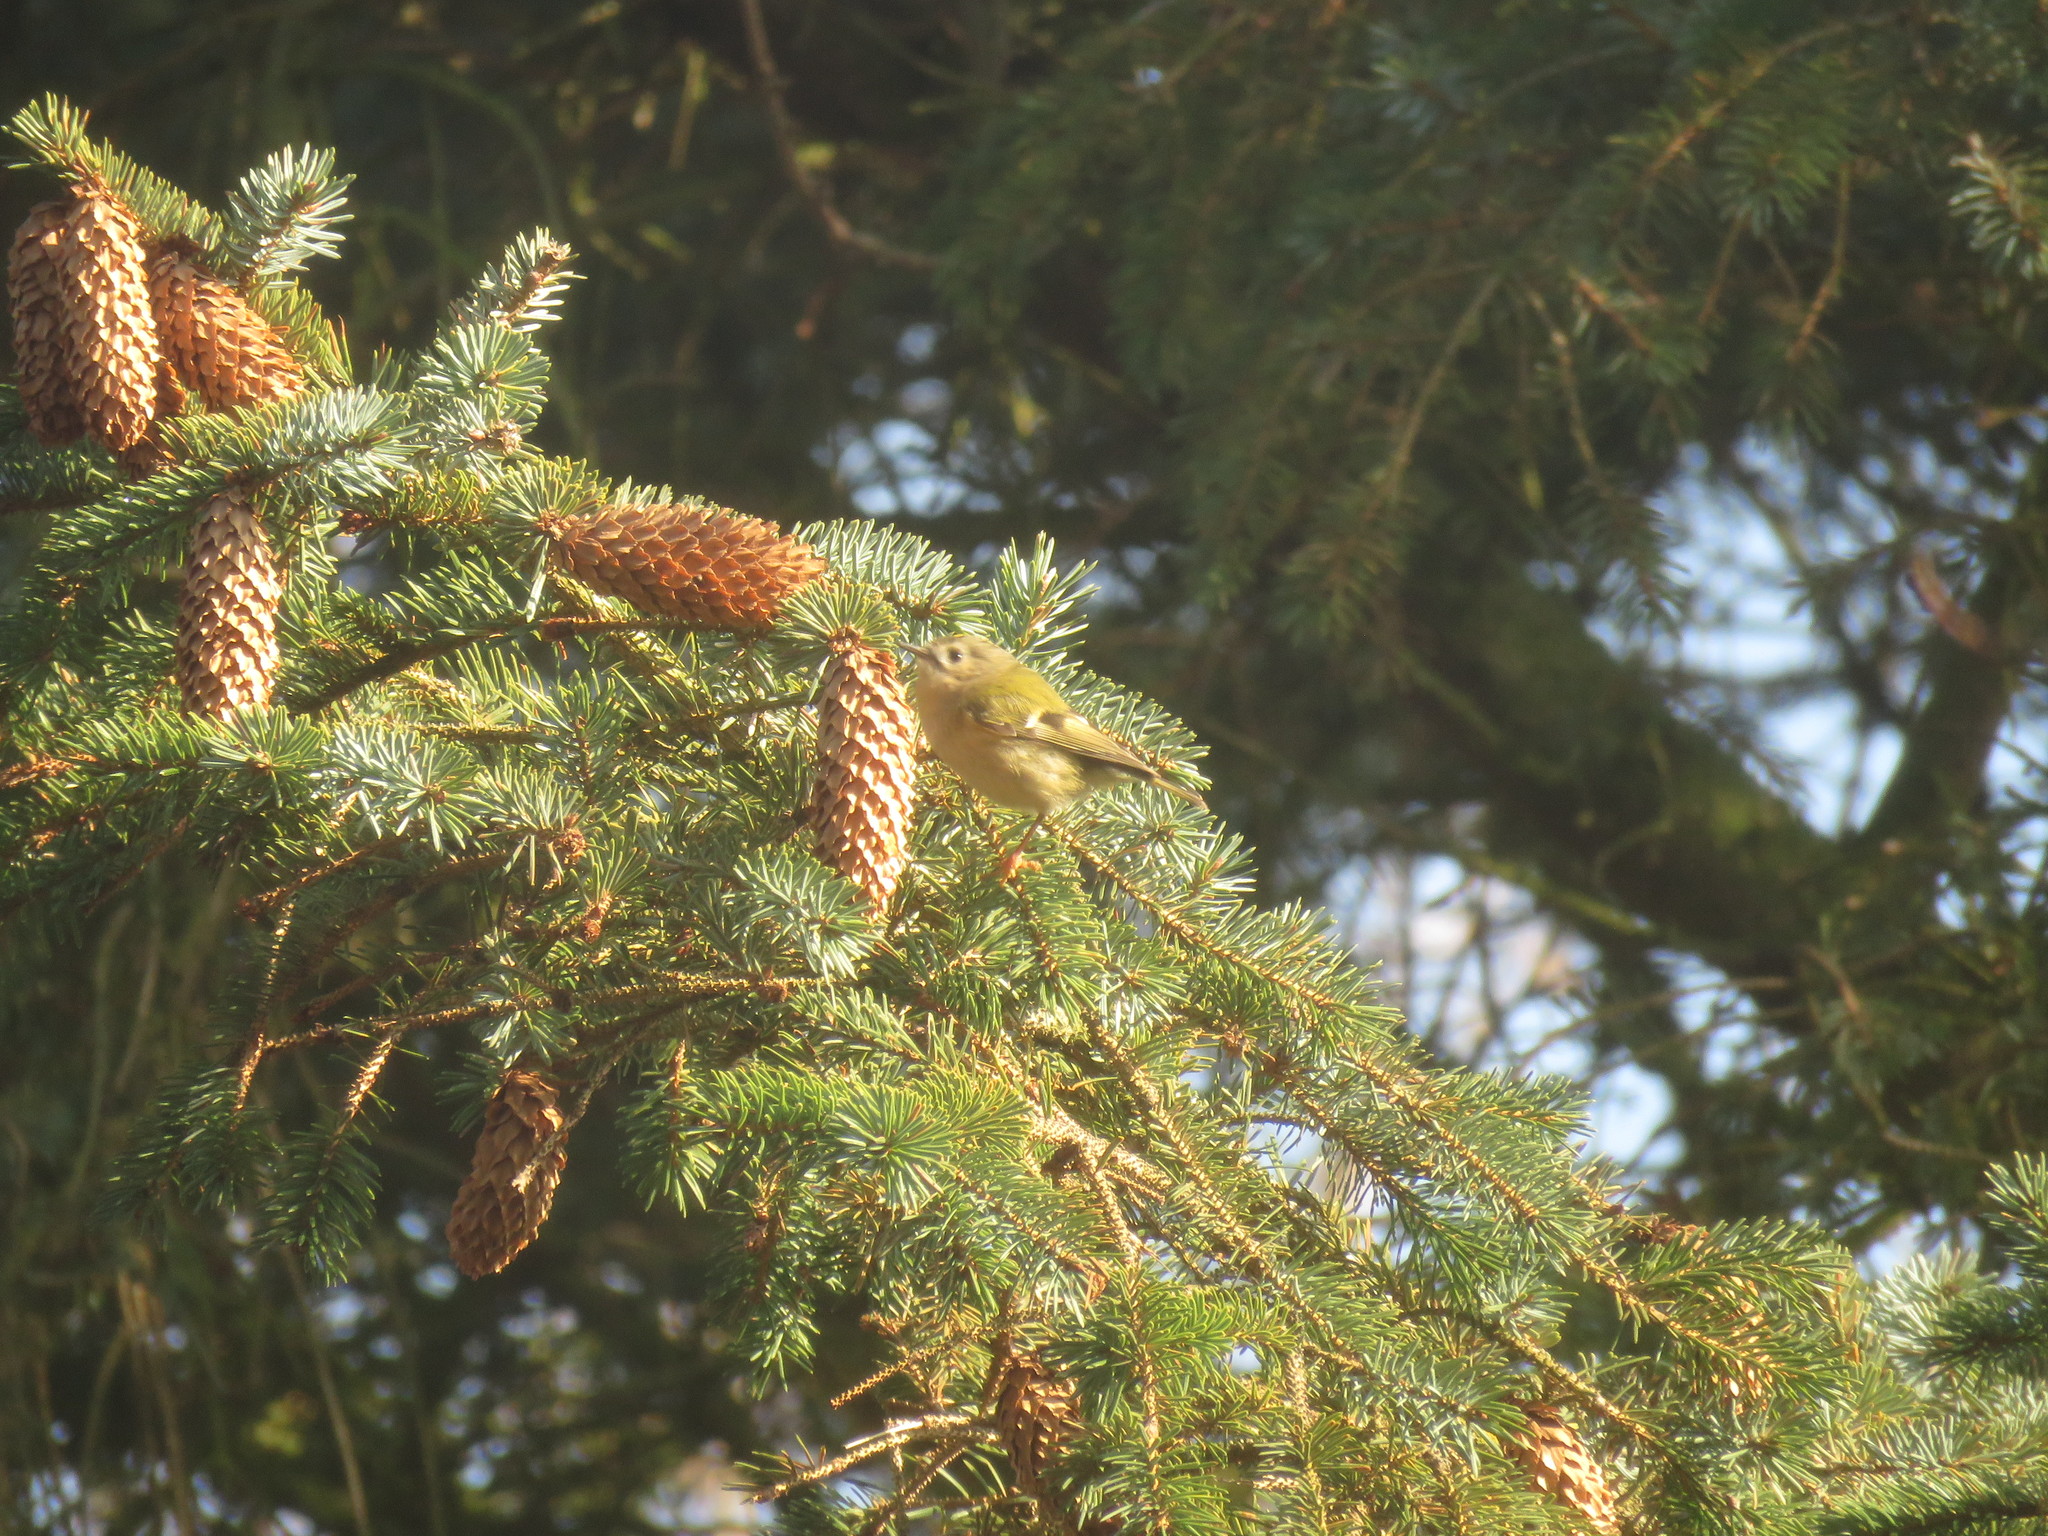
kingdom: Animalia
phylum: Chordata
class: Aves
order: Passeriformes
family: Regulidae
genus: Regulus
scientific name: Regulus regulus
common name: Goldcrest
